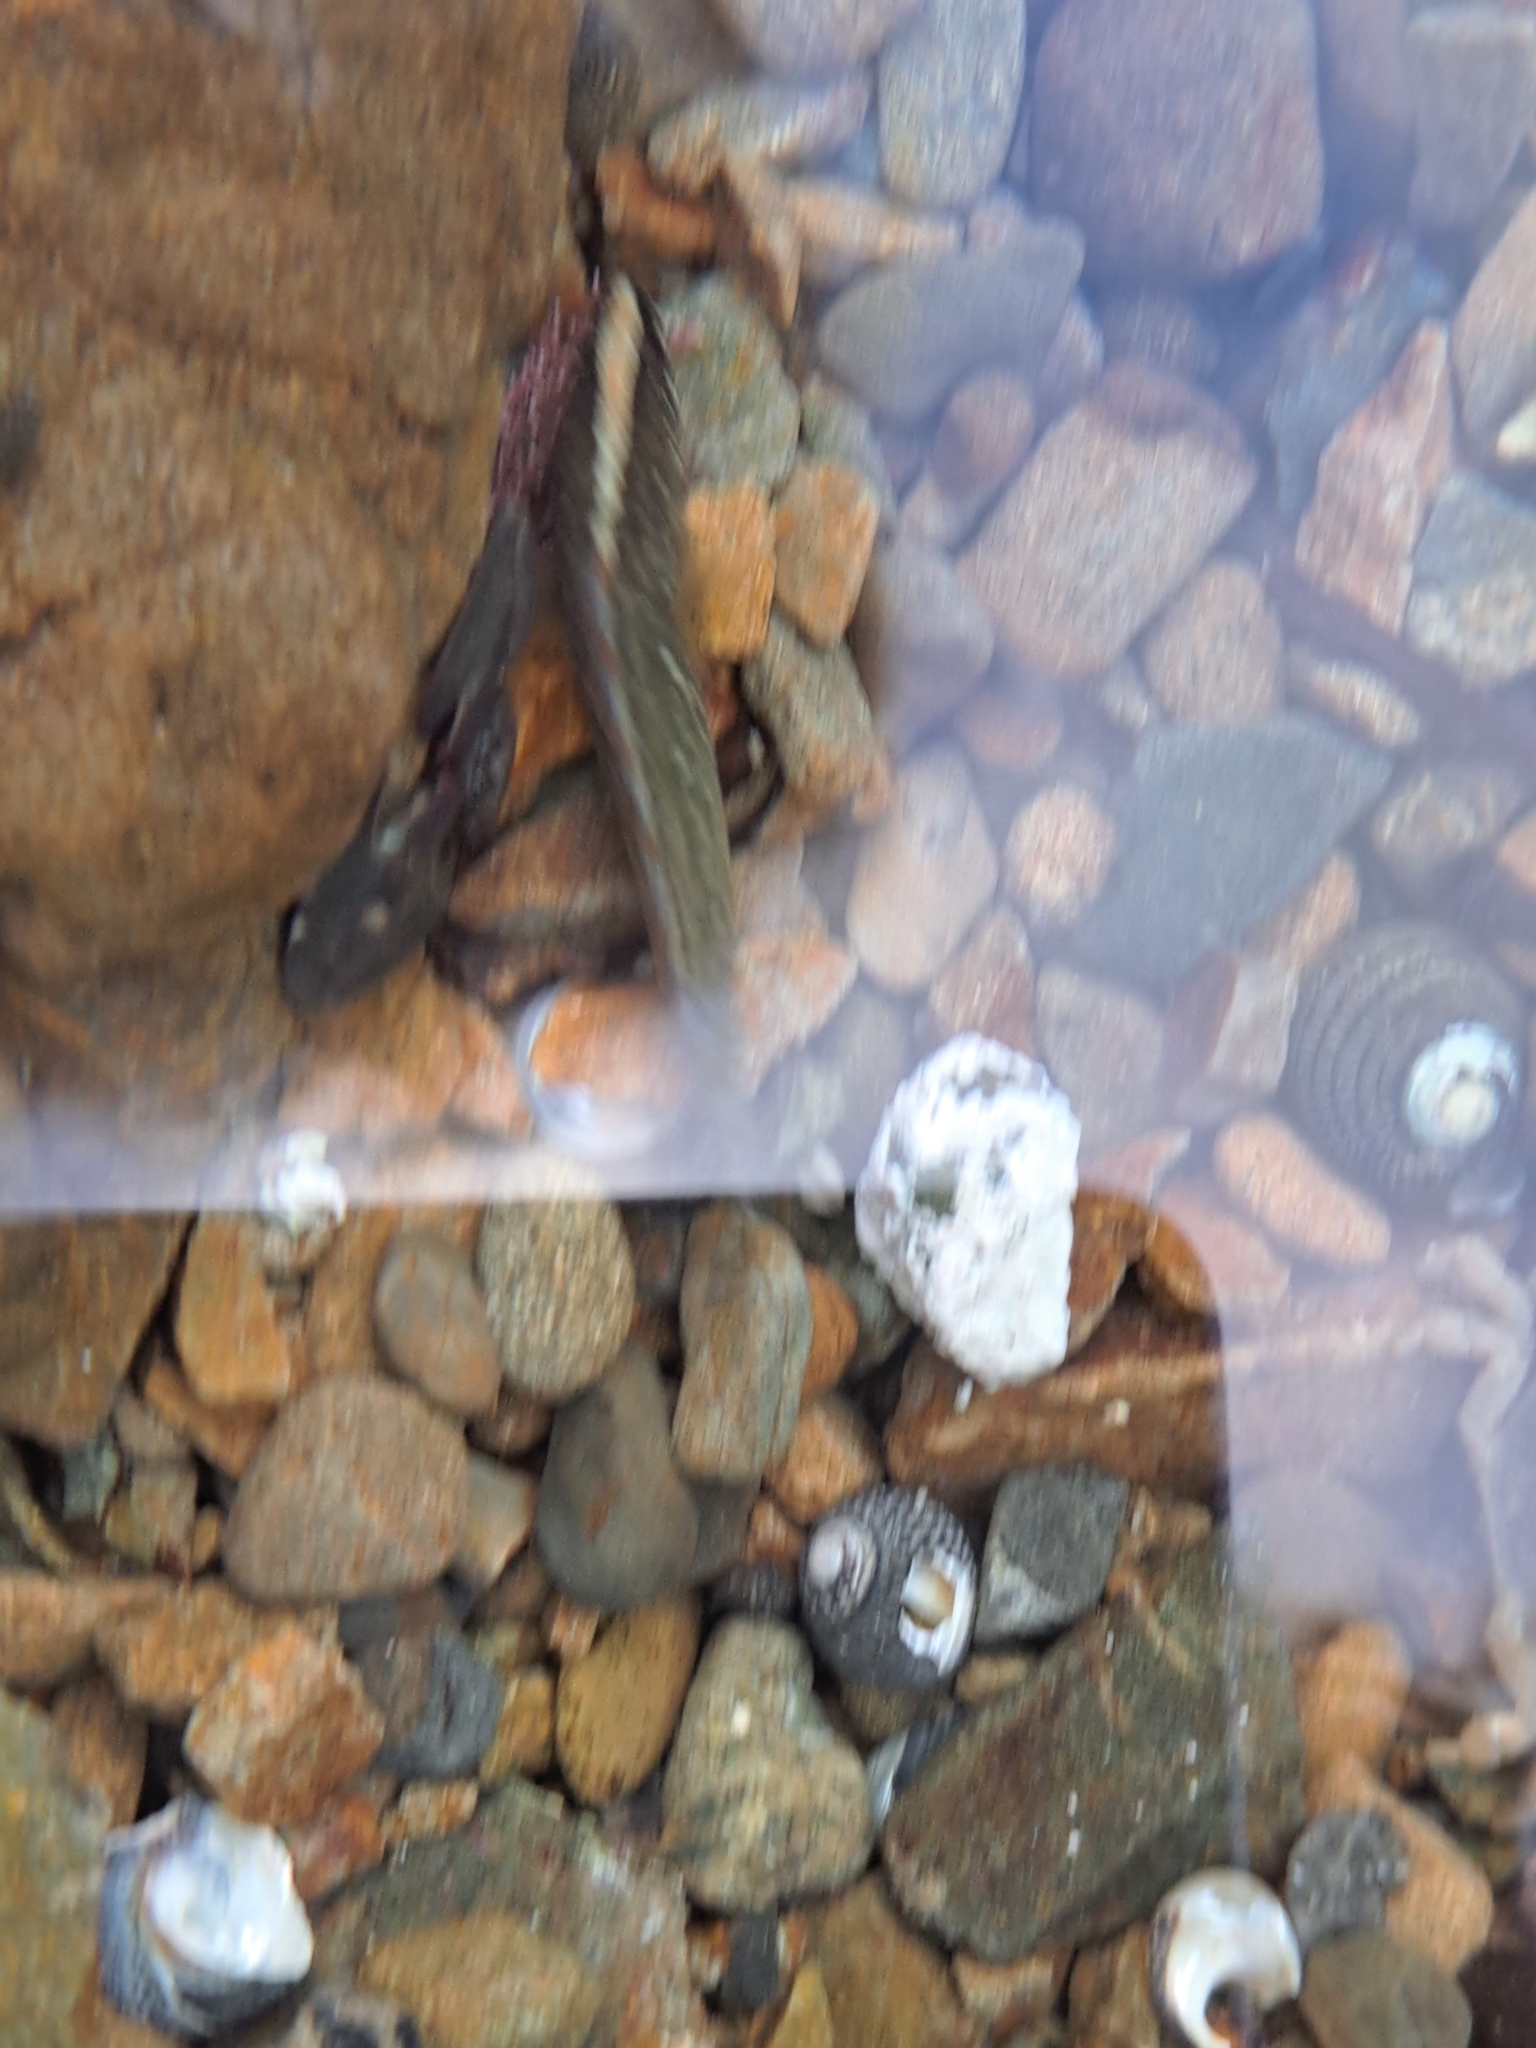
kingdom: Animalia
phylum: Chordata
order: Perciformes
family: Plesiopidae
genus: Acanthoclinus
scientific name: Acanthoclinus fuscus
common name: Olive rockfish
